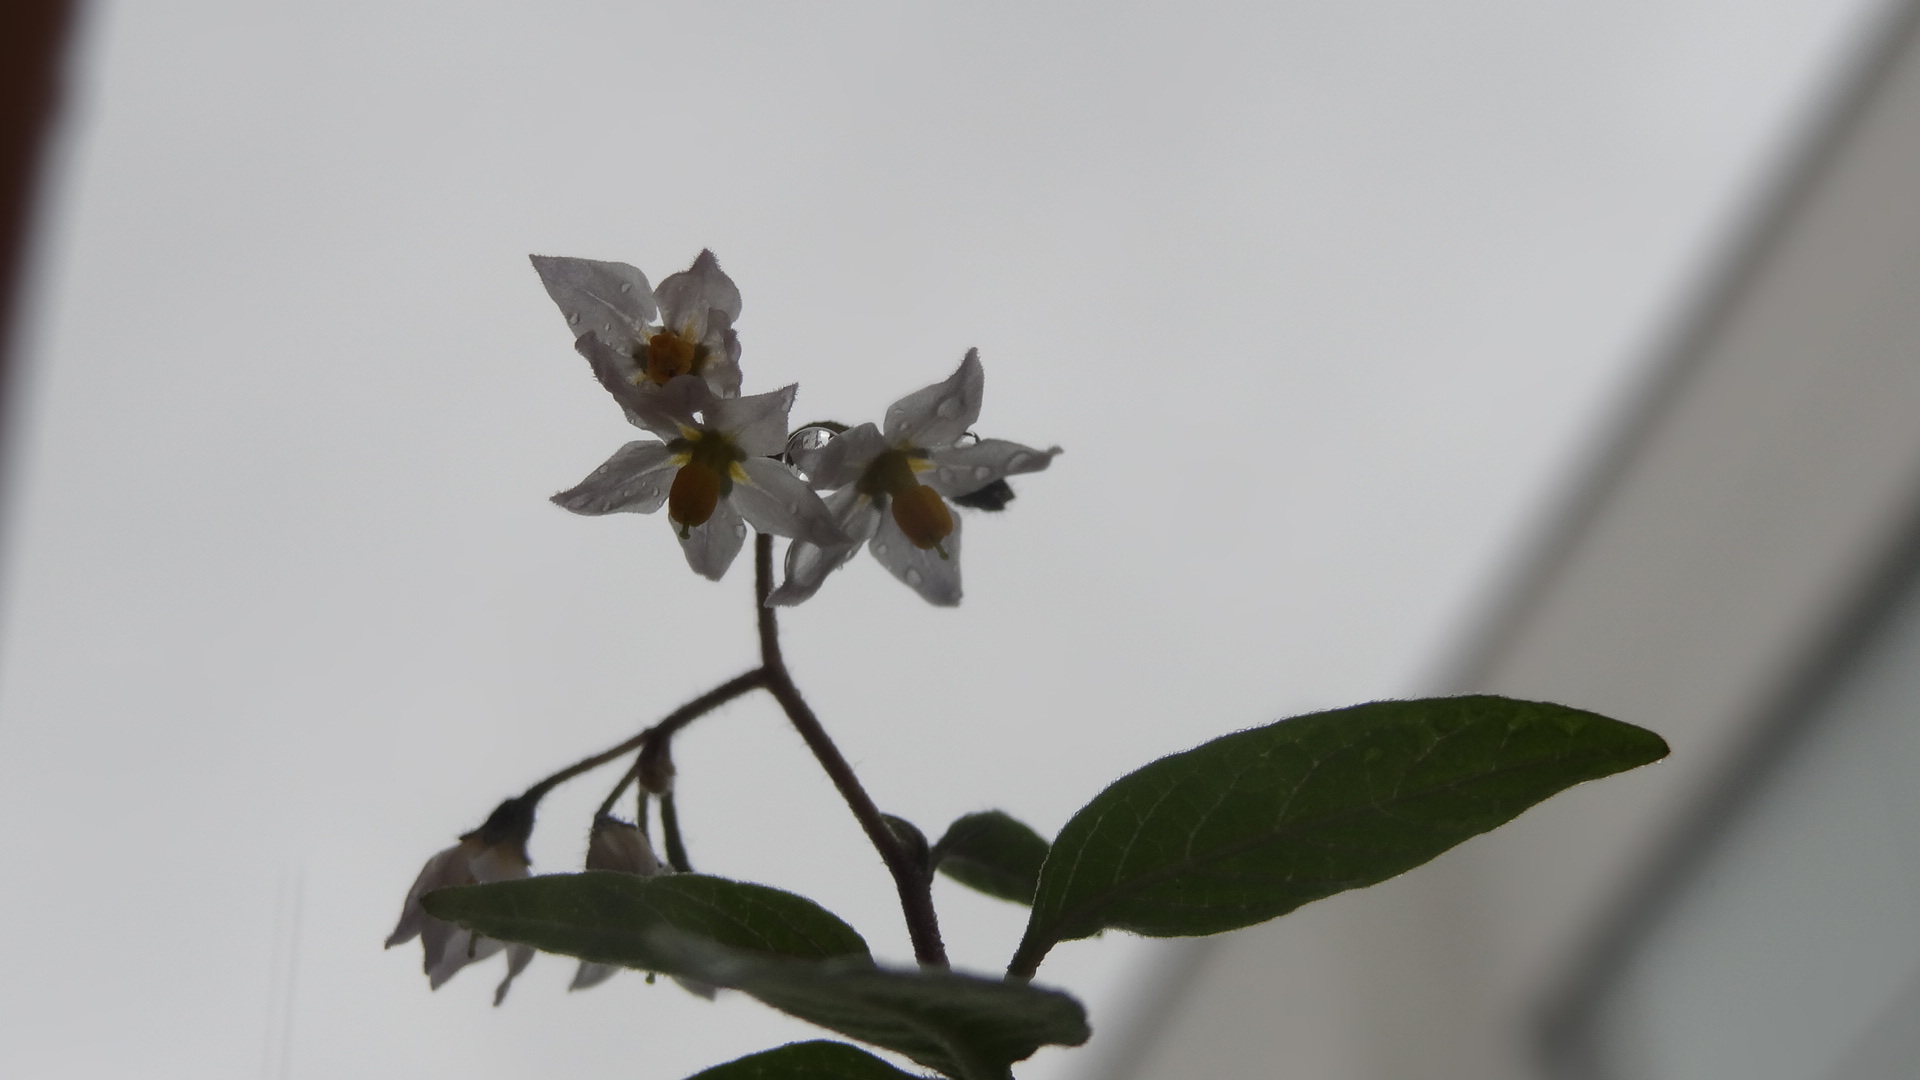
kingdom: Plantae
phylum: Tracheophyta
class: Magnoliopsida
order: Solanales
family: Solanaceae
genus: Solanum
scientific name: Solanum nigrescens
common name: Divine nightshade
